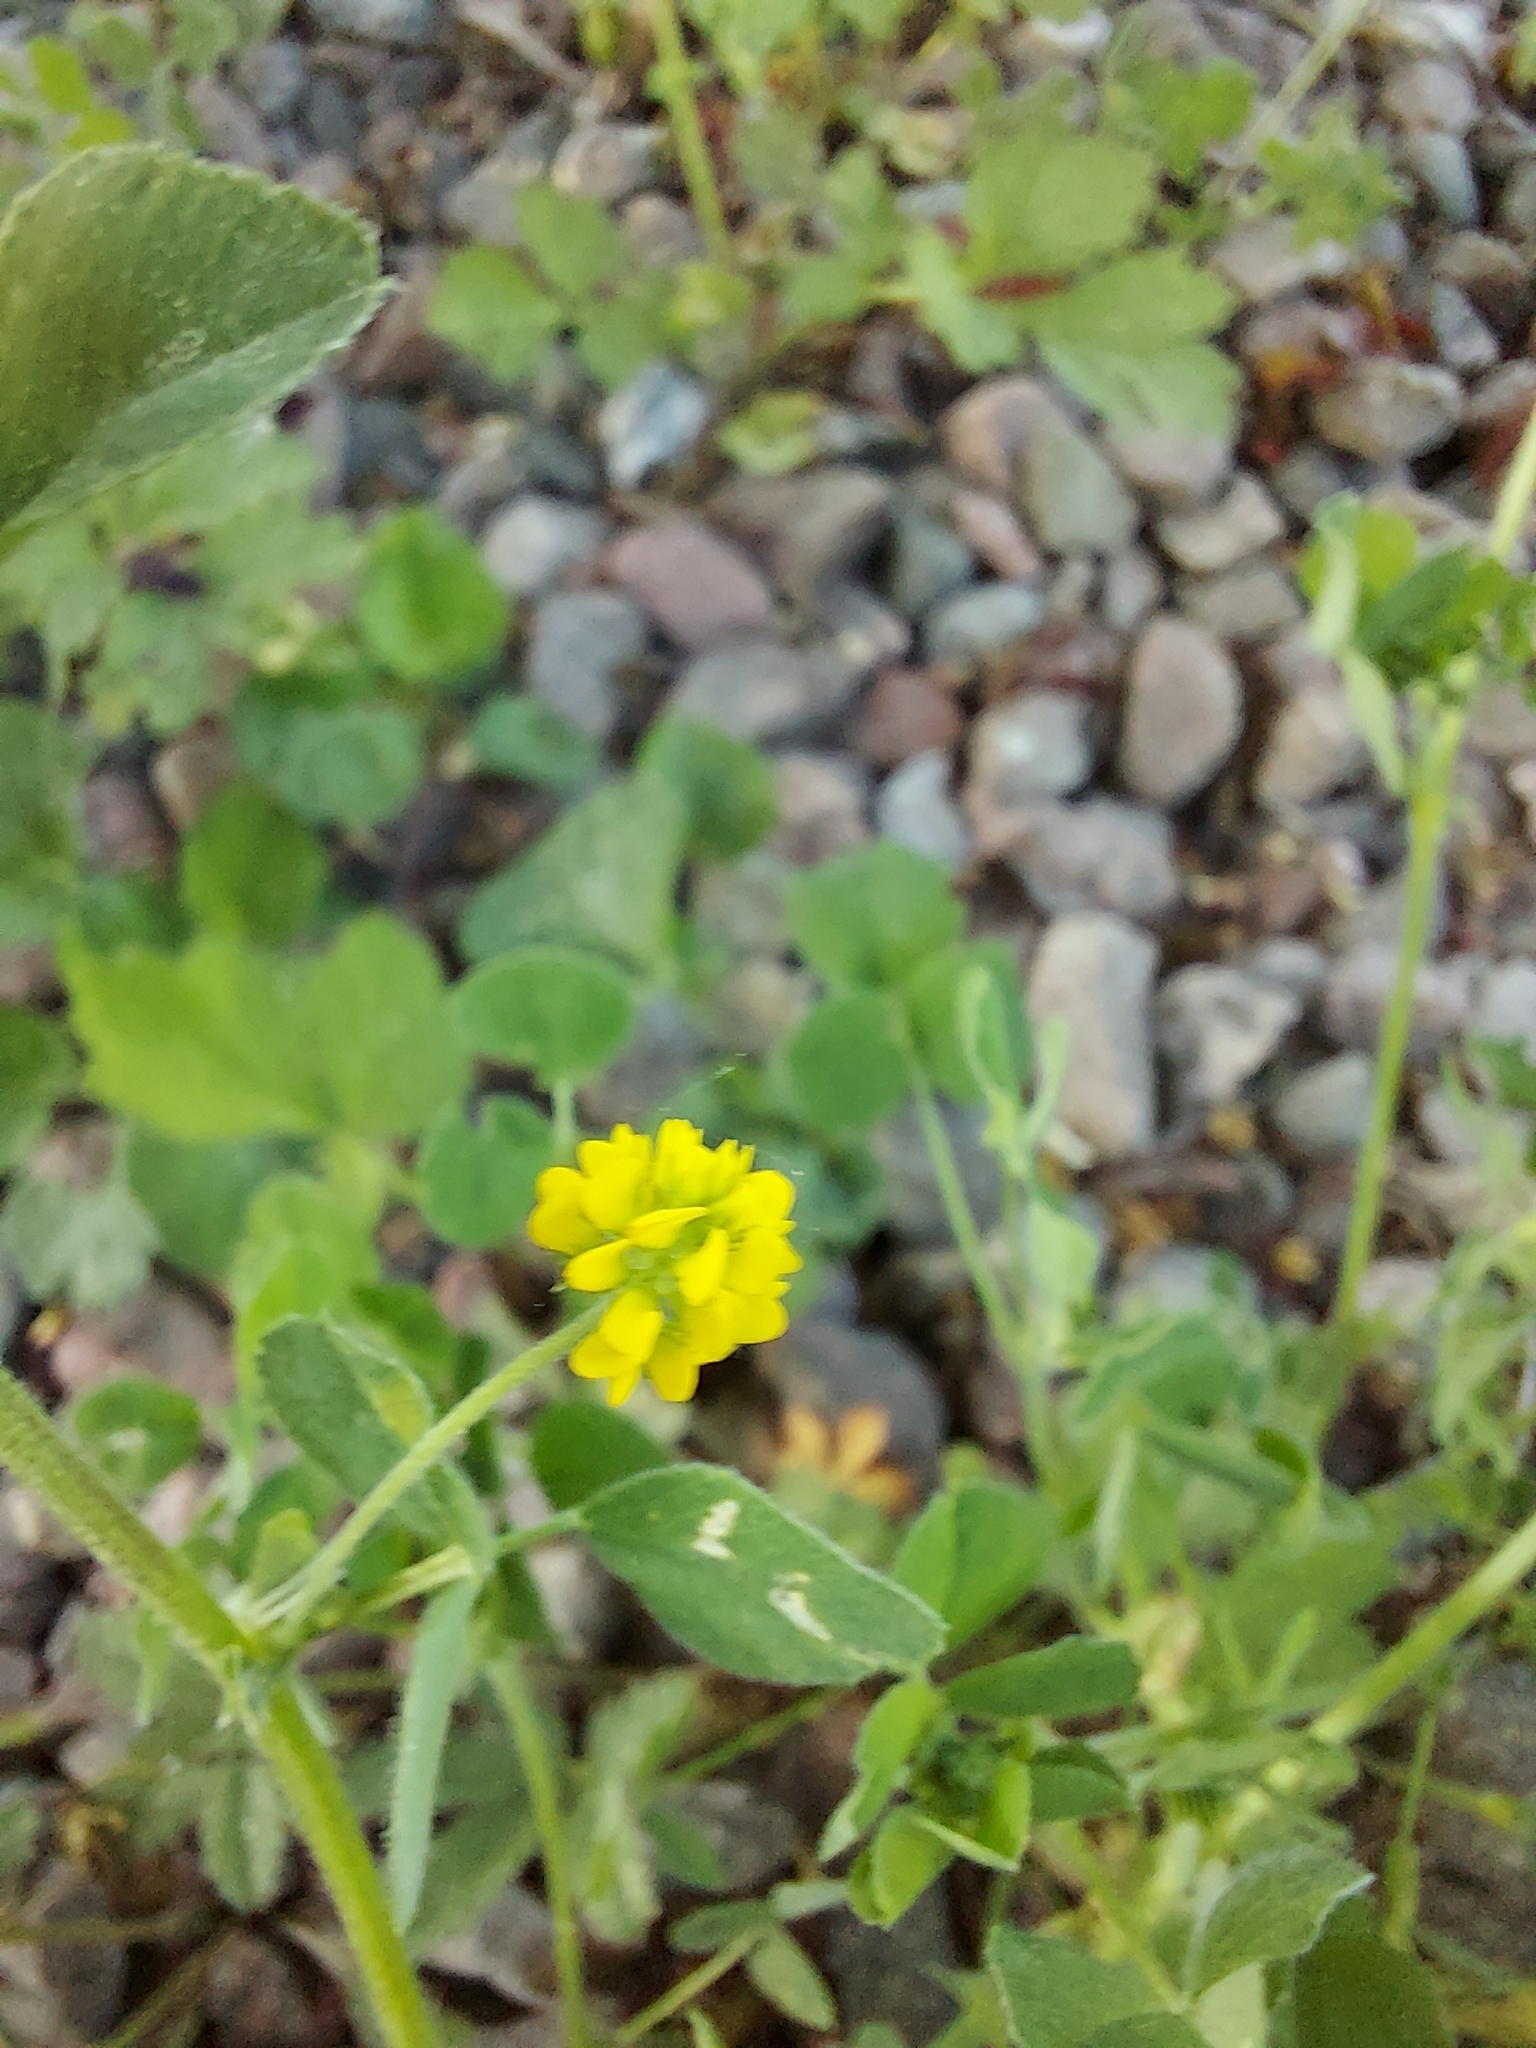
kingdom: Plantae
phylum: Tracheophyta
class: Magnoliopsida
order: Fabales
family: Fabaceae
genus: Medicago
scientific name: Medicago lupulina
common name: Black medick
